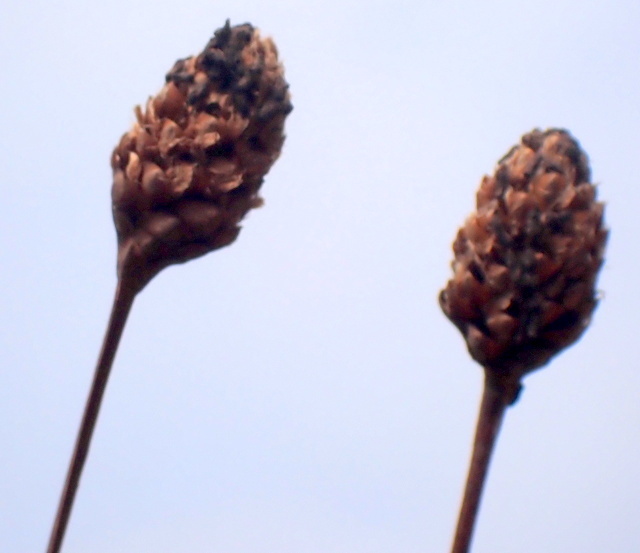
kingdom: Plantae
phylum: Tracheophyta
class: Liliopsida
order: Poales
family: Xyridaceae
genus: Xyris
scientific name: Xyris fimbriata
